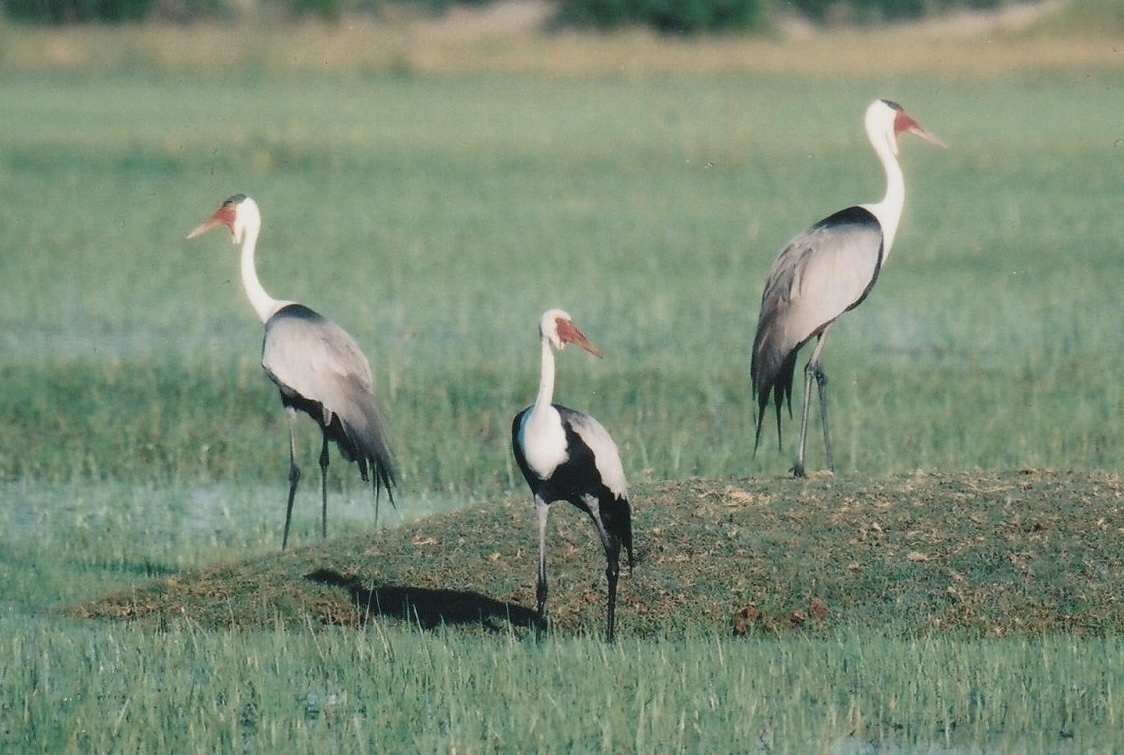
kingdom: Animalia
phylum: Chordata
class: Aves
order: Gruiformes
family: Gruidae
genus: Bugeranus
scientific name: Bugeranus carunculatus
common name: Wattled crane
